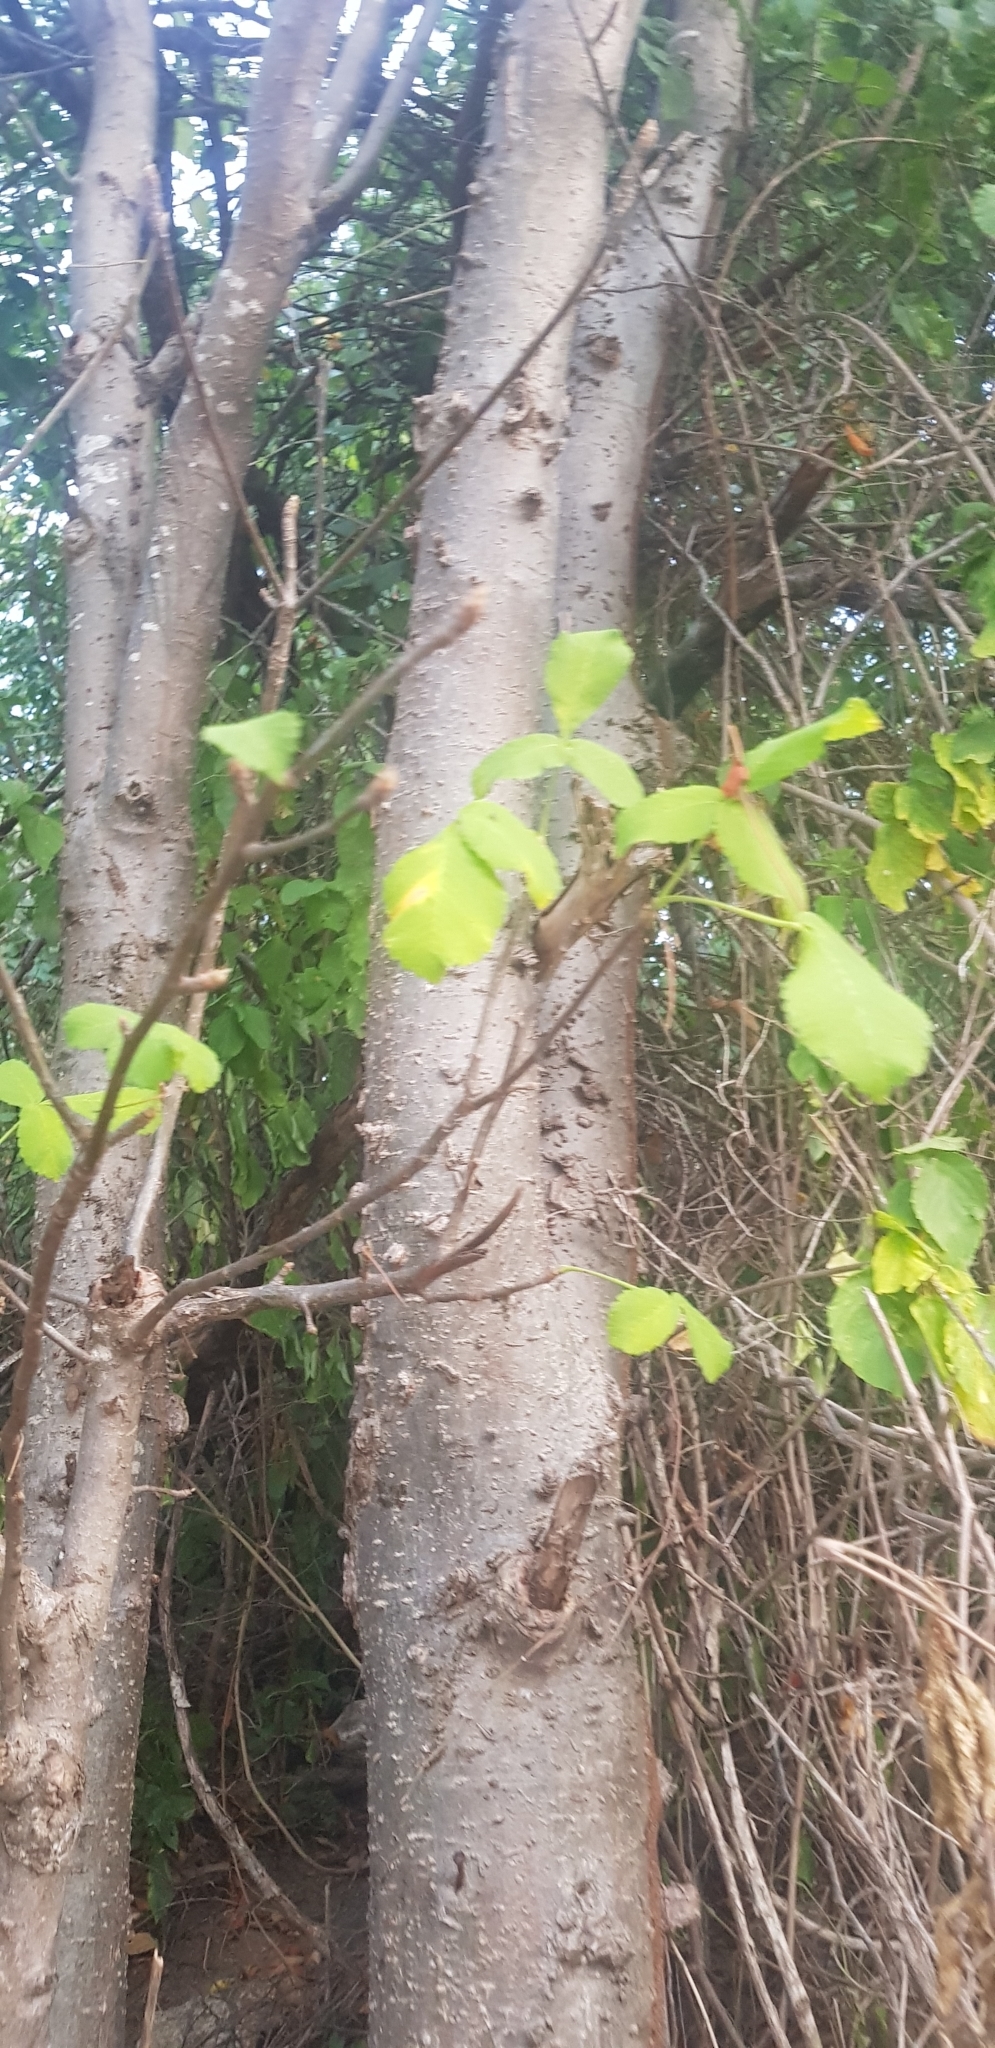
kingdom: Plantae
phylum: Tracheophyta
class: Magnoliopsida
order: Sapindales
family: Anacardiaceae
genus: Amphipterygium
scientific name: Amphipterygium simplicifolium
